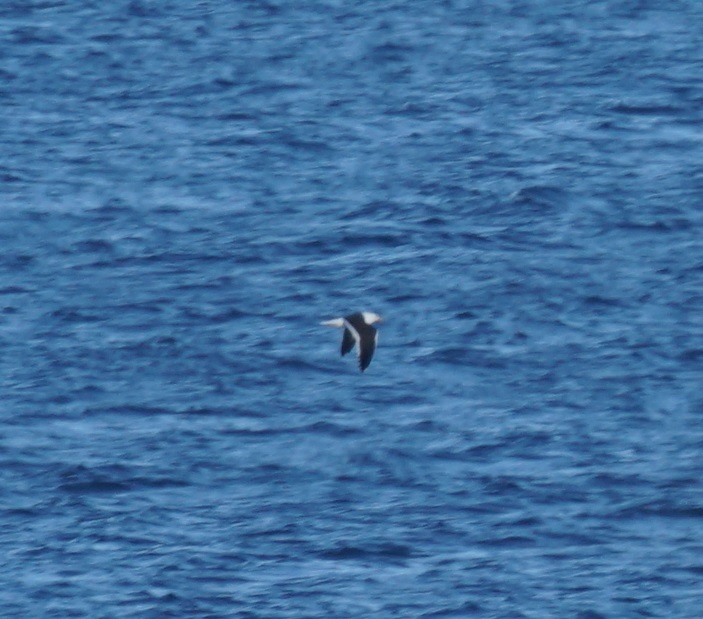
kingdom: Animalia
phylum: Chordata
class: Aves
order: Charadriiformes
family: Laridae
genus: Larus
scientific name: Larus dominicanus
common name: Kelp gull
